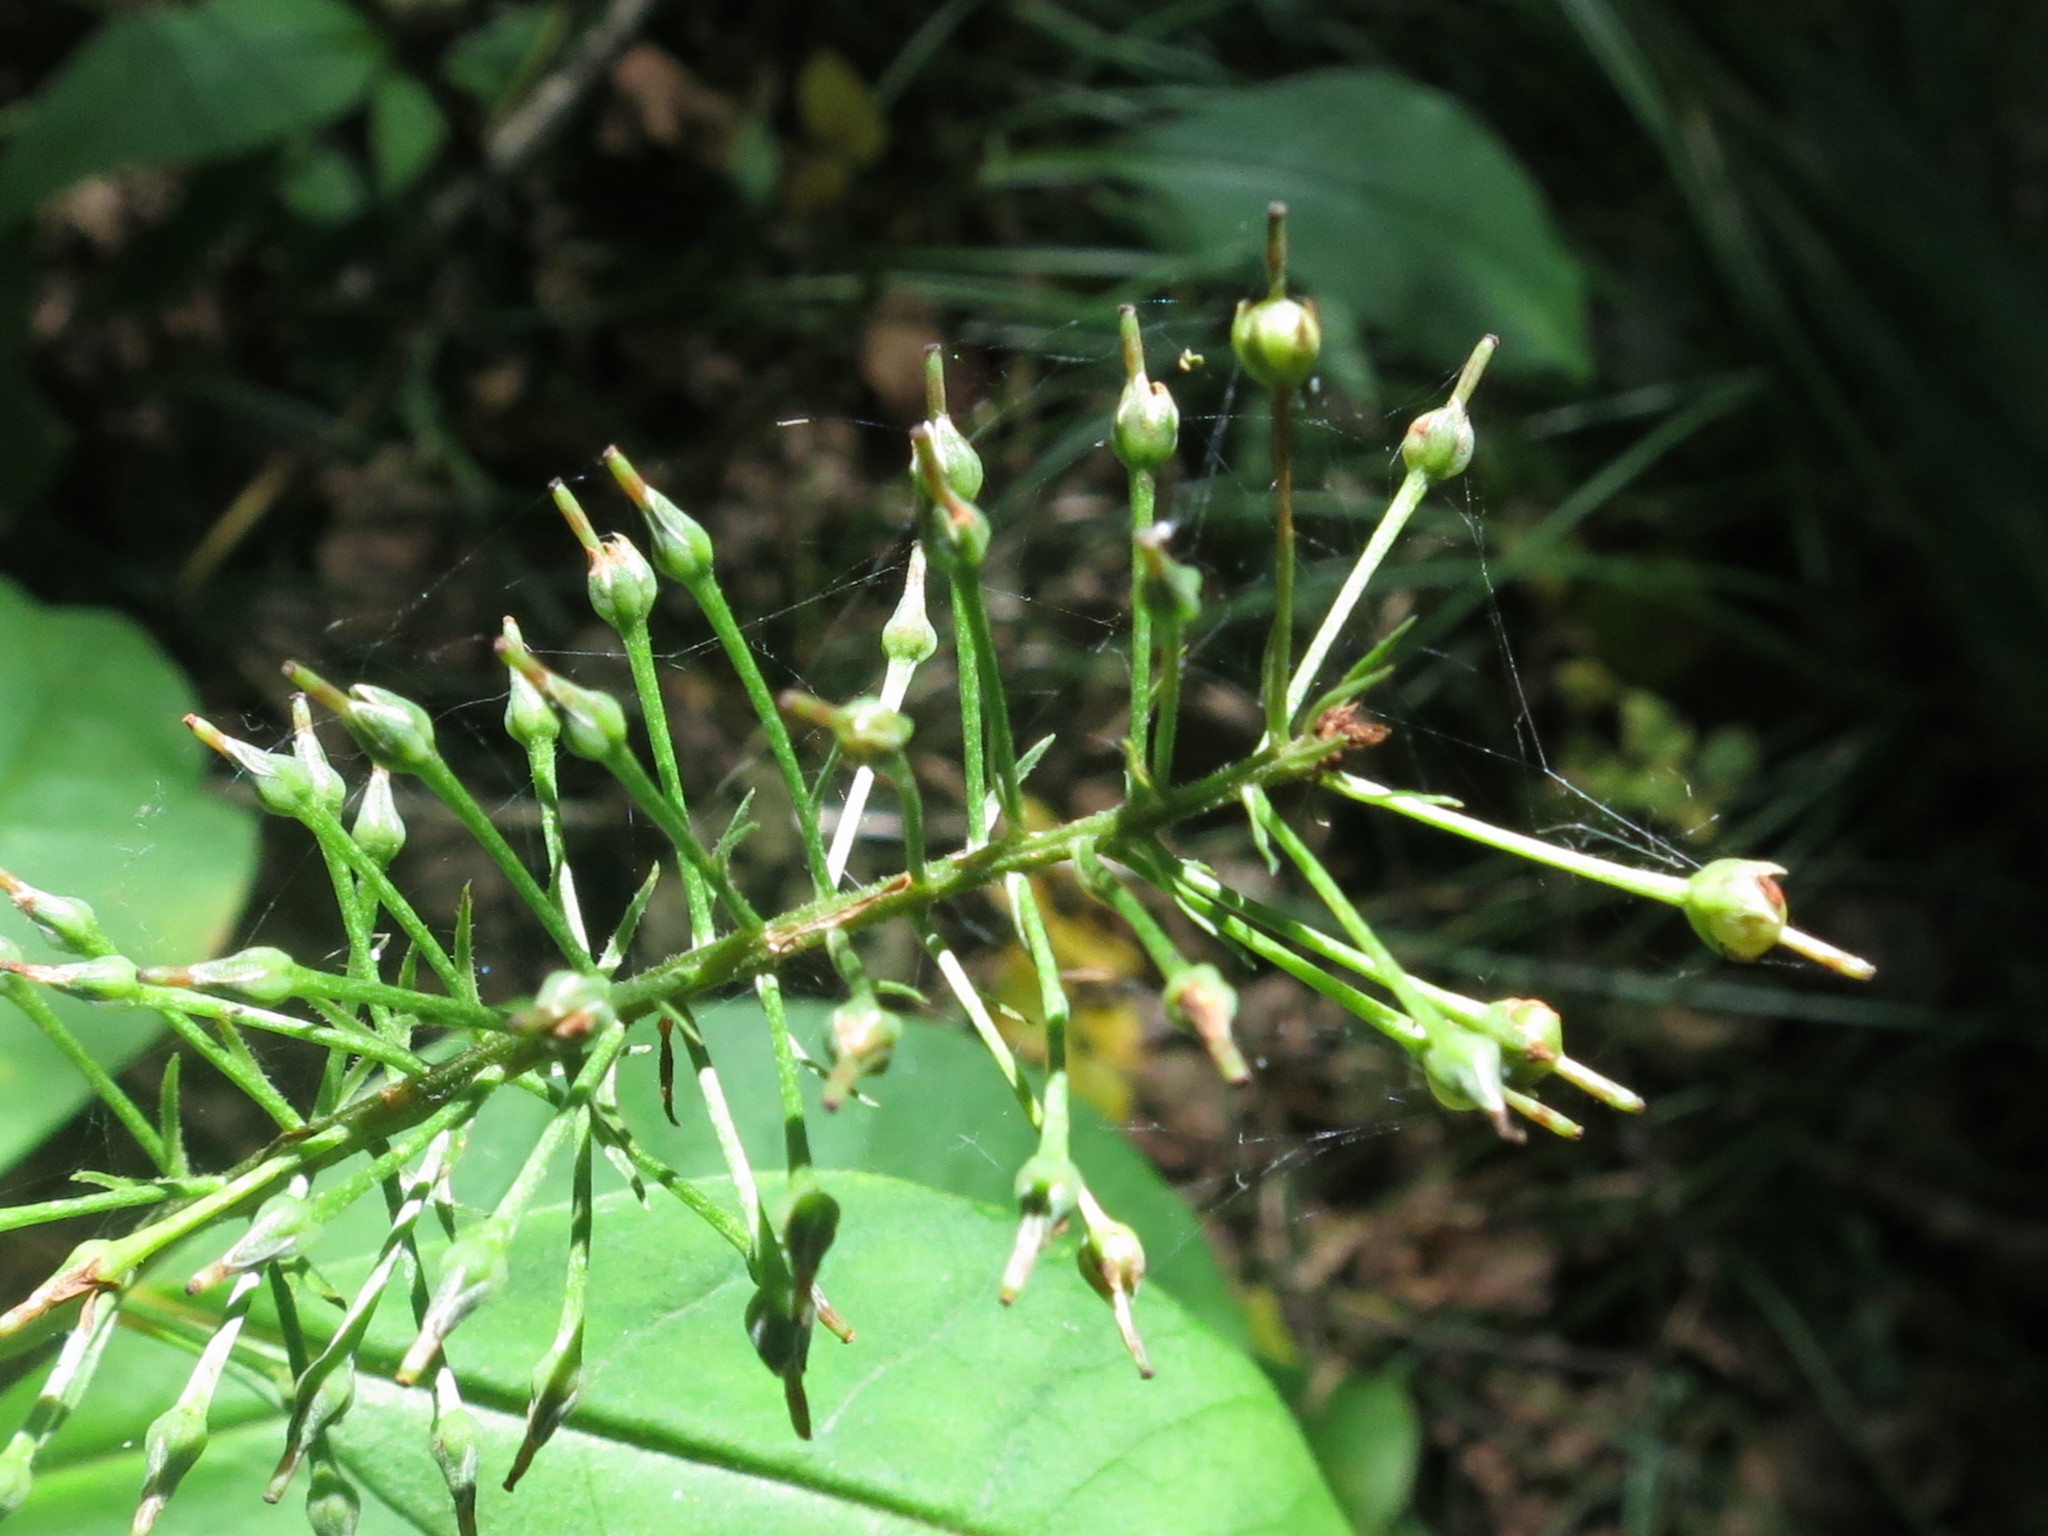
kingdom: Plantae
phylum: Tracheophyta
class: Magnoliopsida
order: Ericales
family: Primulaceae
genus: Lysimachia
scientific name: Lysimachia clethroides
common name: Gooseneck loosestrife
